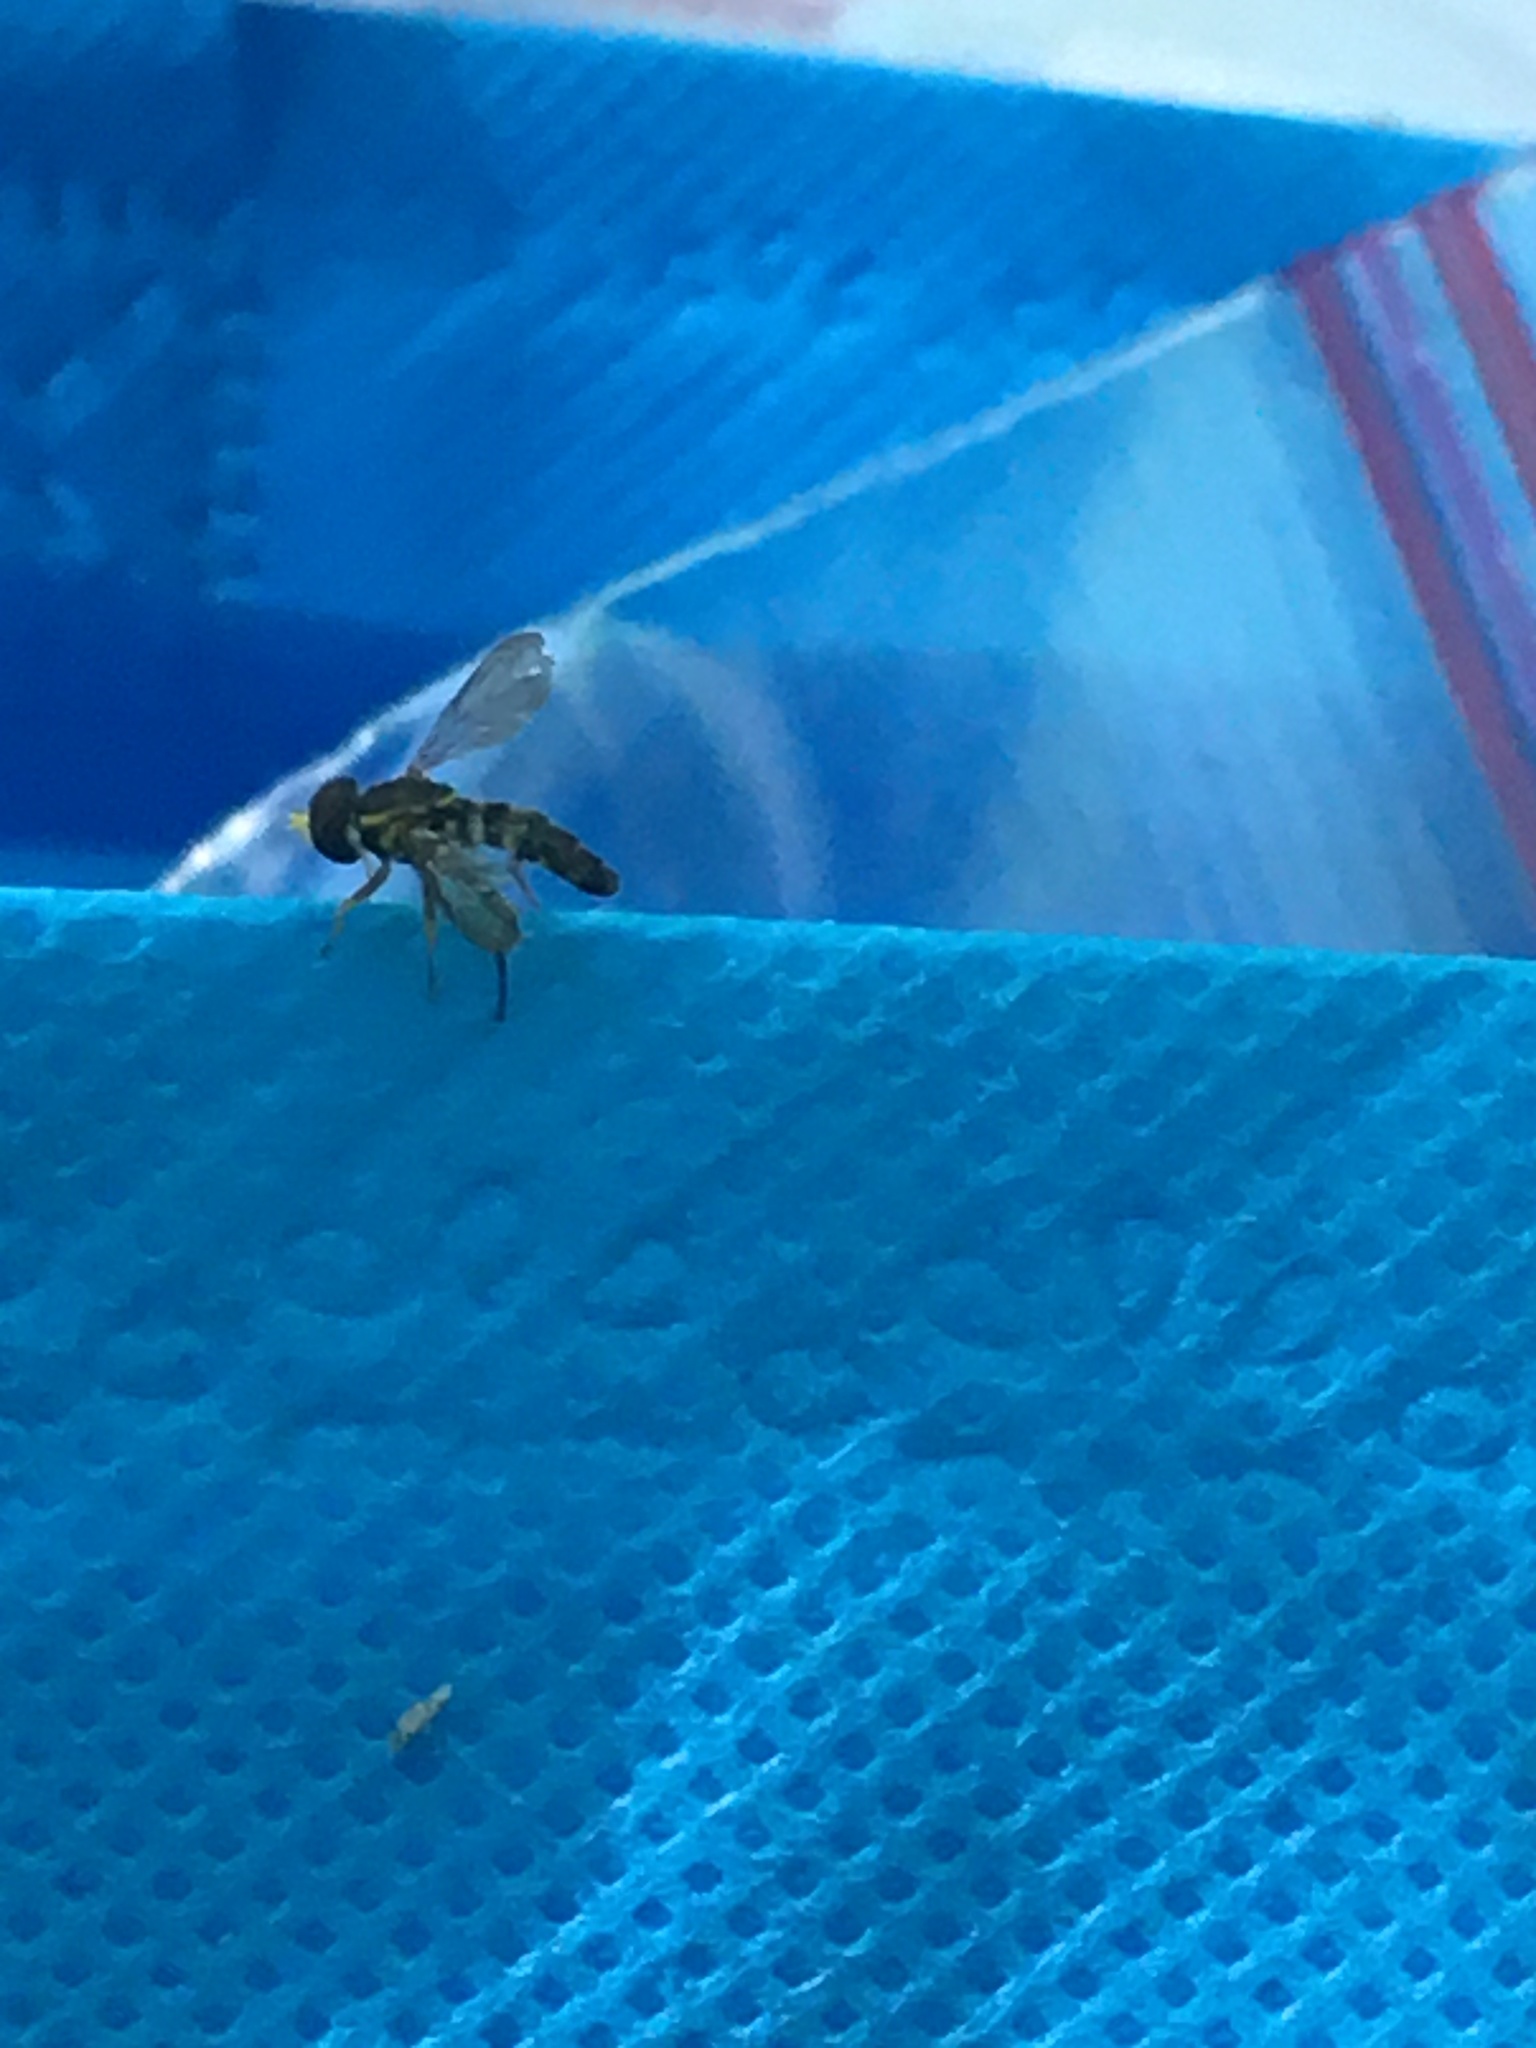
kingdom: Animalia
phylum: Arthropoda
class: Insecta
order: Diptera
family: Syrphidae
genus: Toxomerus
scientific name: Toxomerus geminatus
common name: Eastern calligrapher
